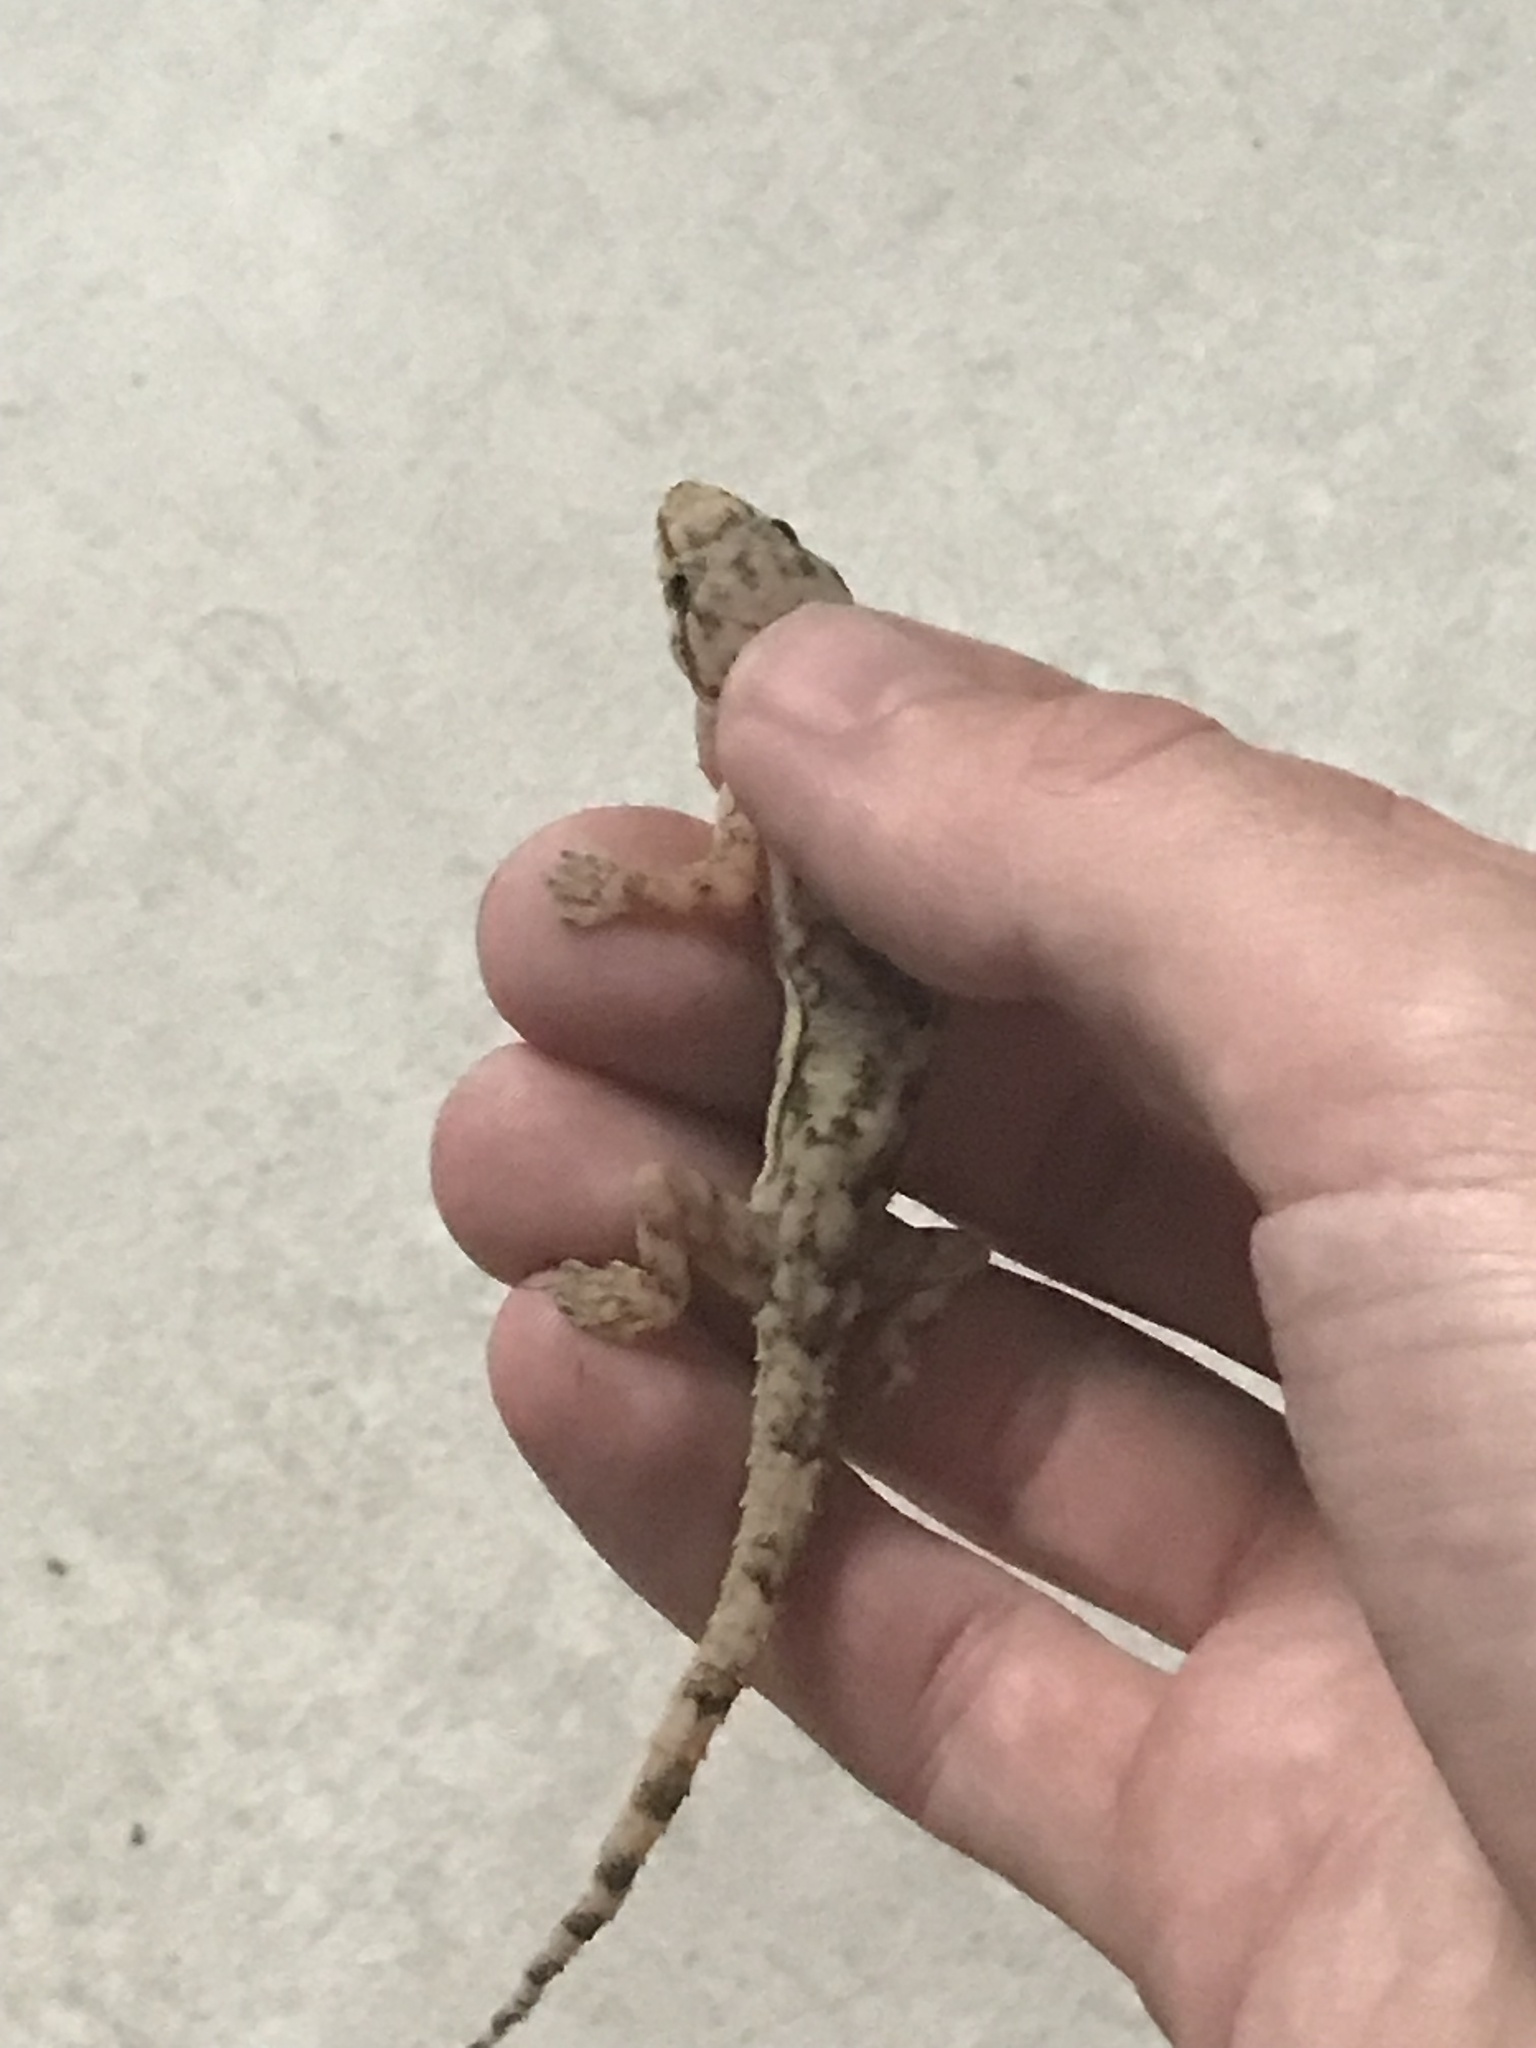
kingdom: Animalia
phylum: Chordata
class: Squamata
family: Gekkonidae
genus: Hemidactylus
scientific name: Hemidactylus mabouia
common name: House gecko
